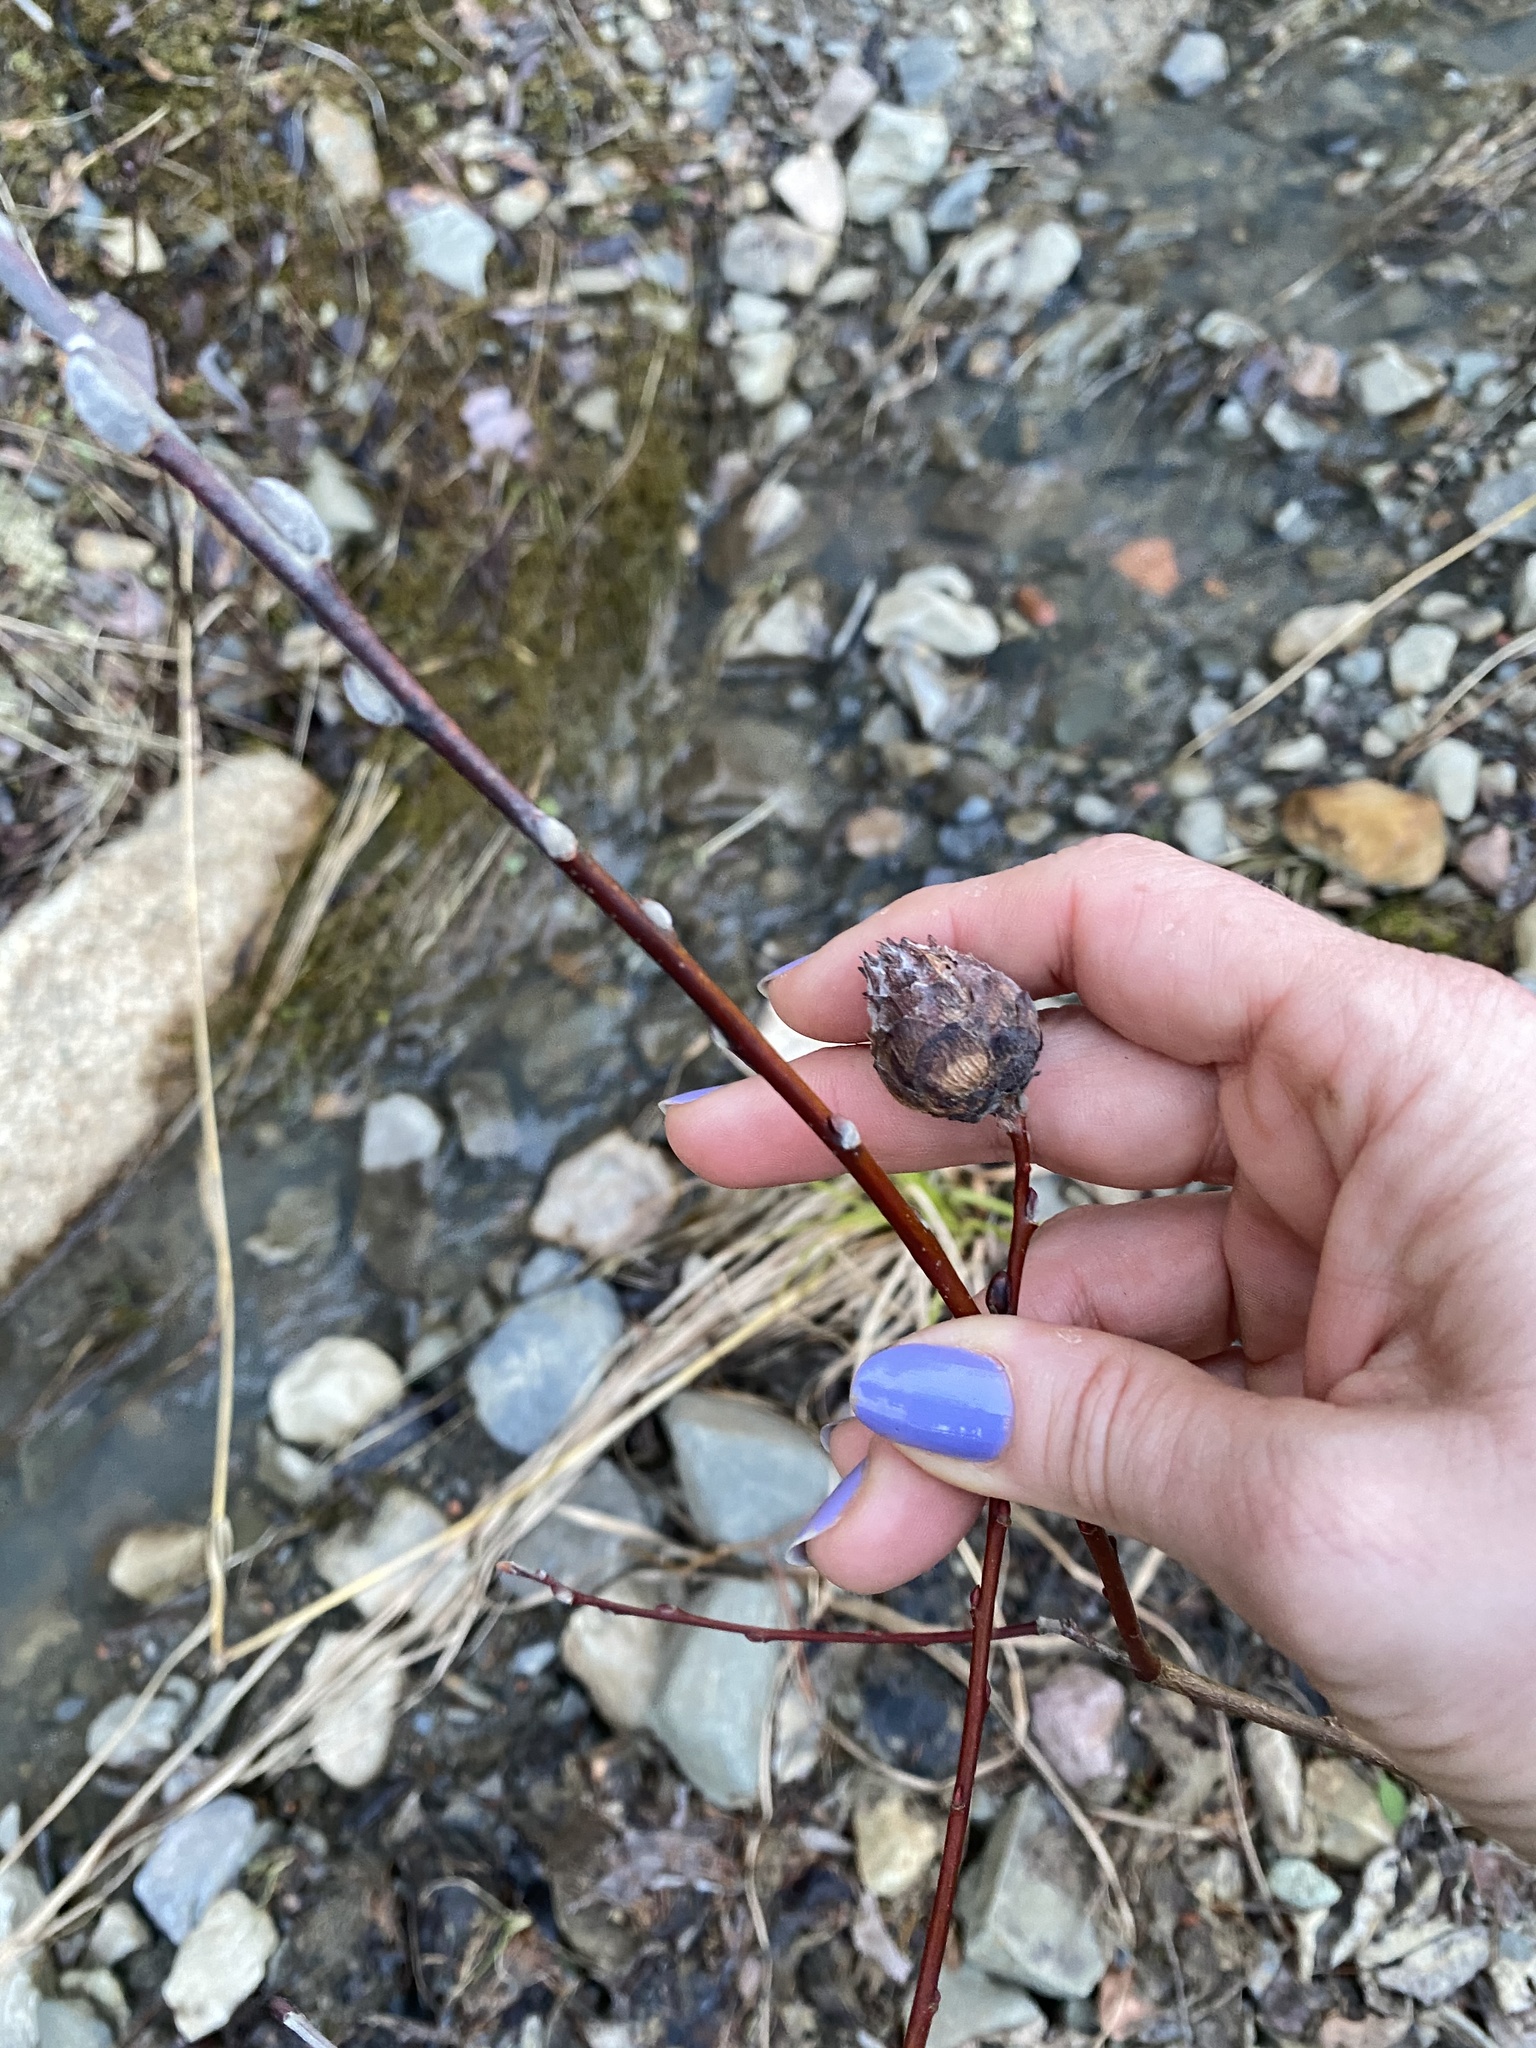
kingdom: Animalia
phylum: Arthropoda
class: Insecta
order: Diptera
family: Cecidomyiidae
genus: Rabdophaga
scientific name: Rabdophaga strobiloides
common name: Willow pinecone gall midge
